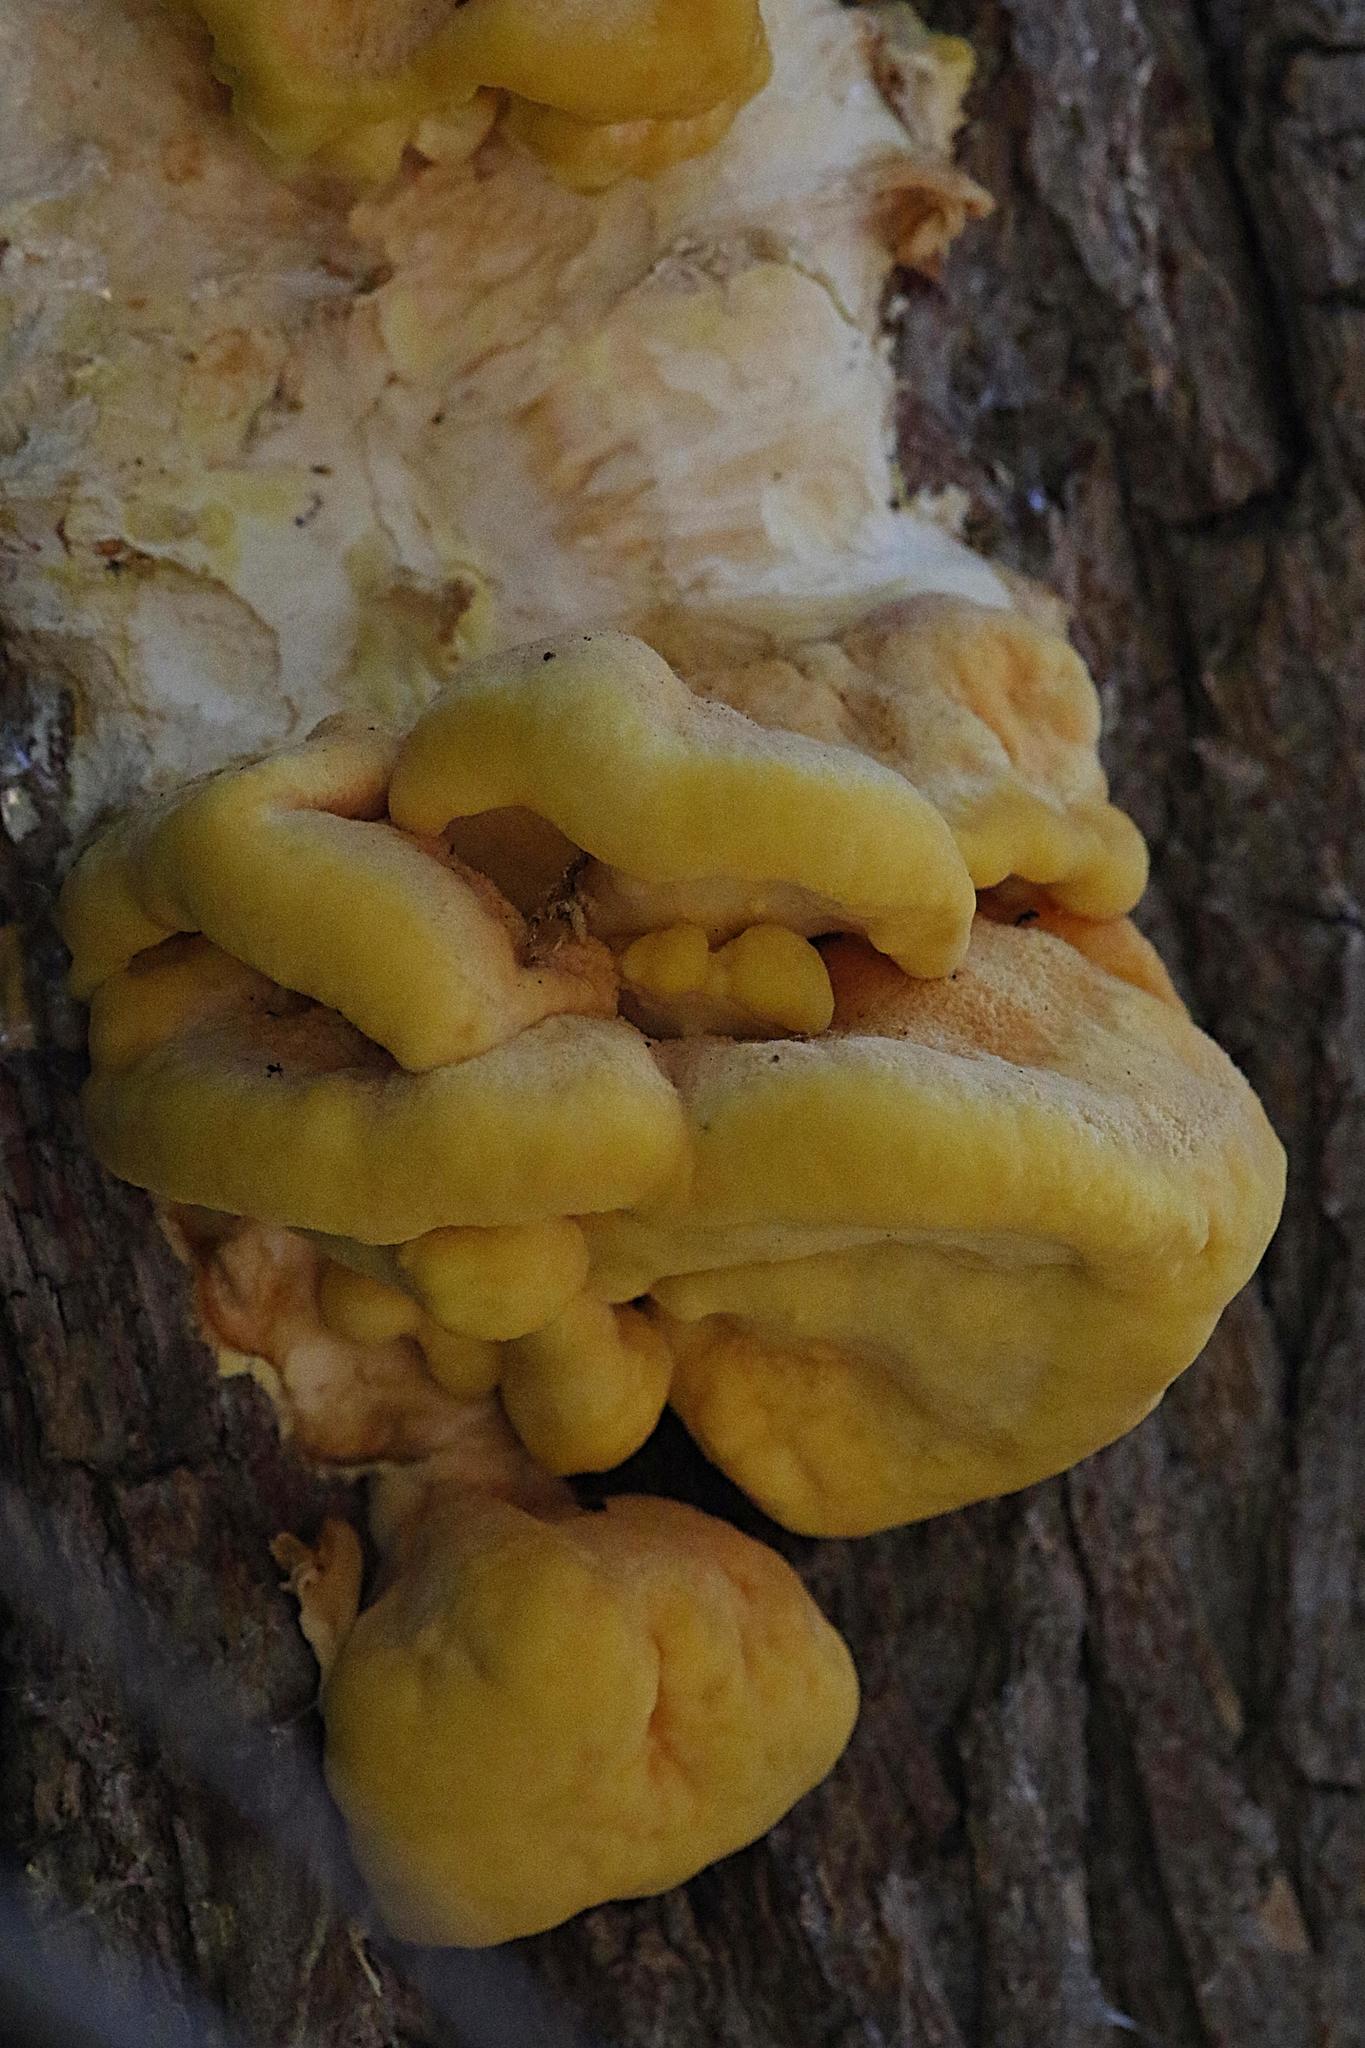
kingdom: Fungi
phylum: Basidiomycota
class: Agaricomycetes
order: Polyporales
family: Laetiporaceae
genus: Laetiporus
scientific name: Laetiporus sulphureus
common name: Chicken of the woods
